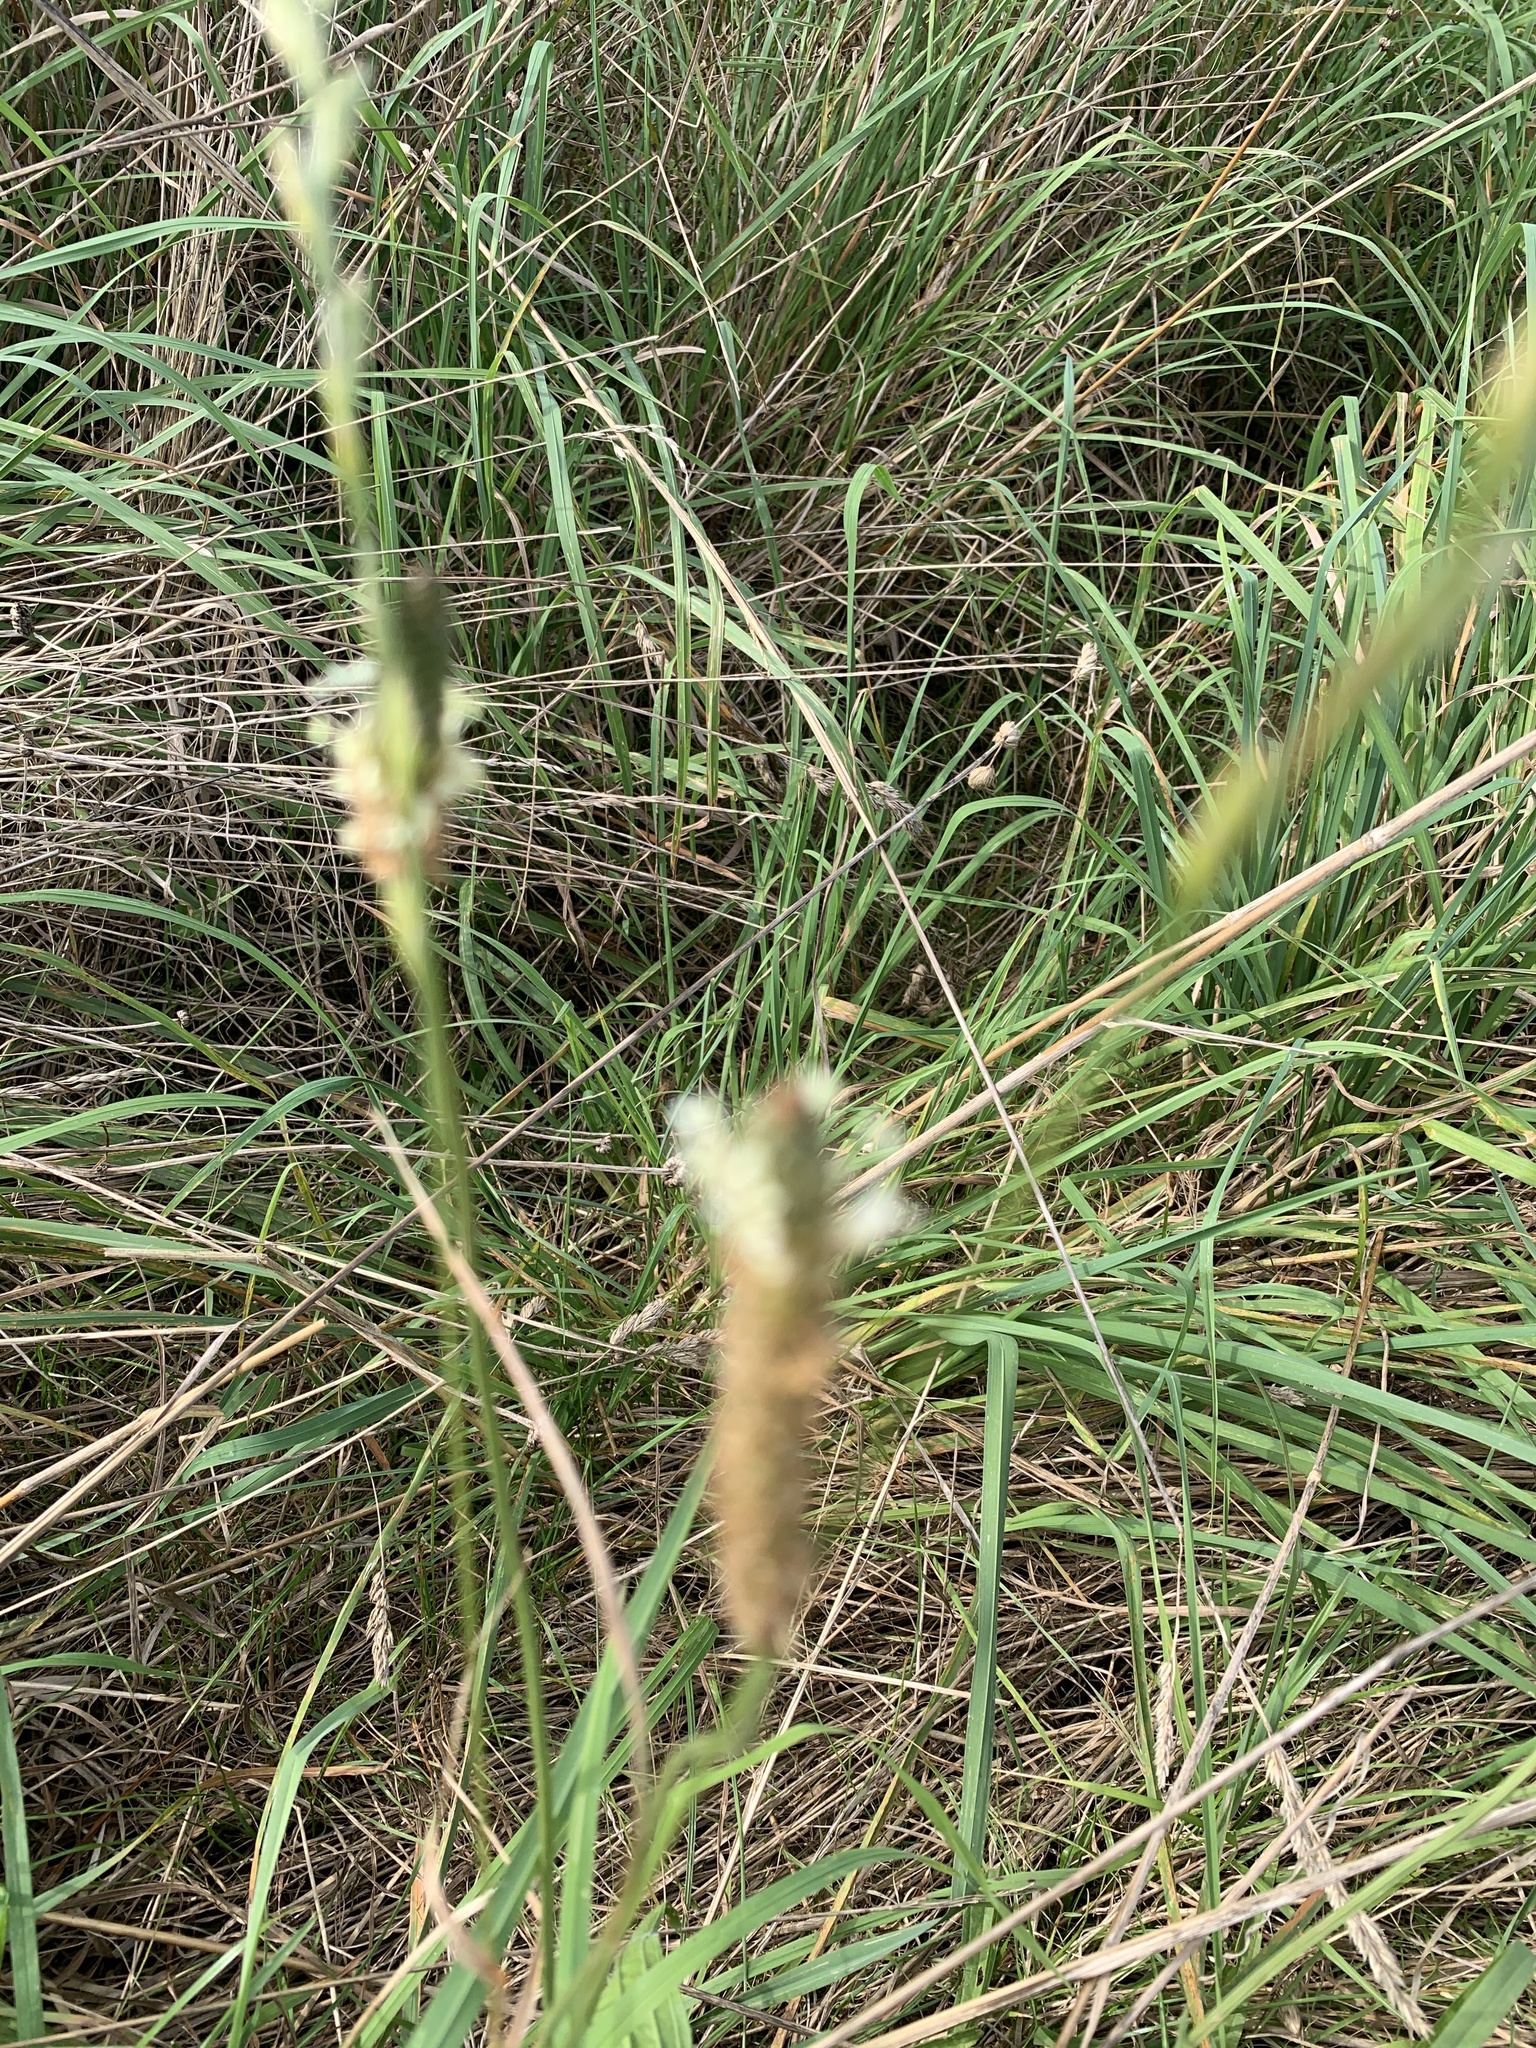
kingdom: Plantae
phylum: Tracheophyta
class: Magnoliopsida
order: Lamiales
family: Plantaginaceae
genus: Plantago
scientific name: Plantago lanceolata
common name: Ribwort plantain
